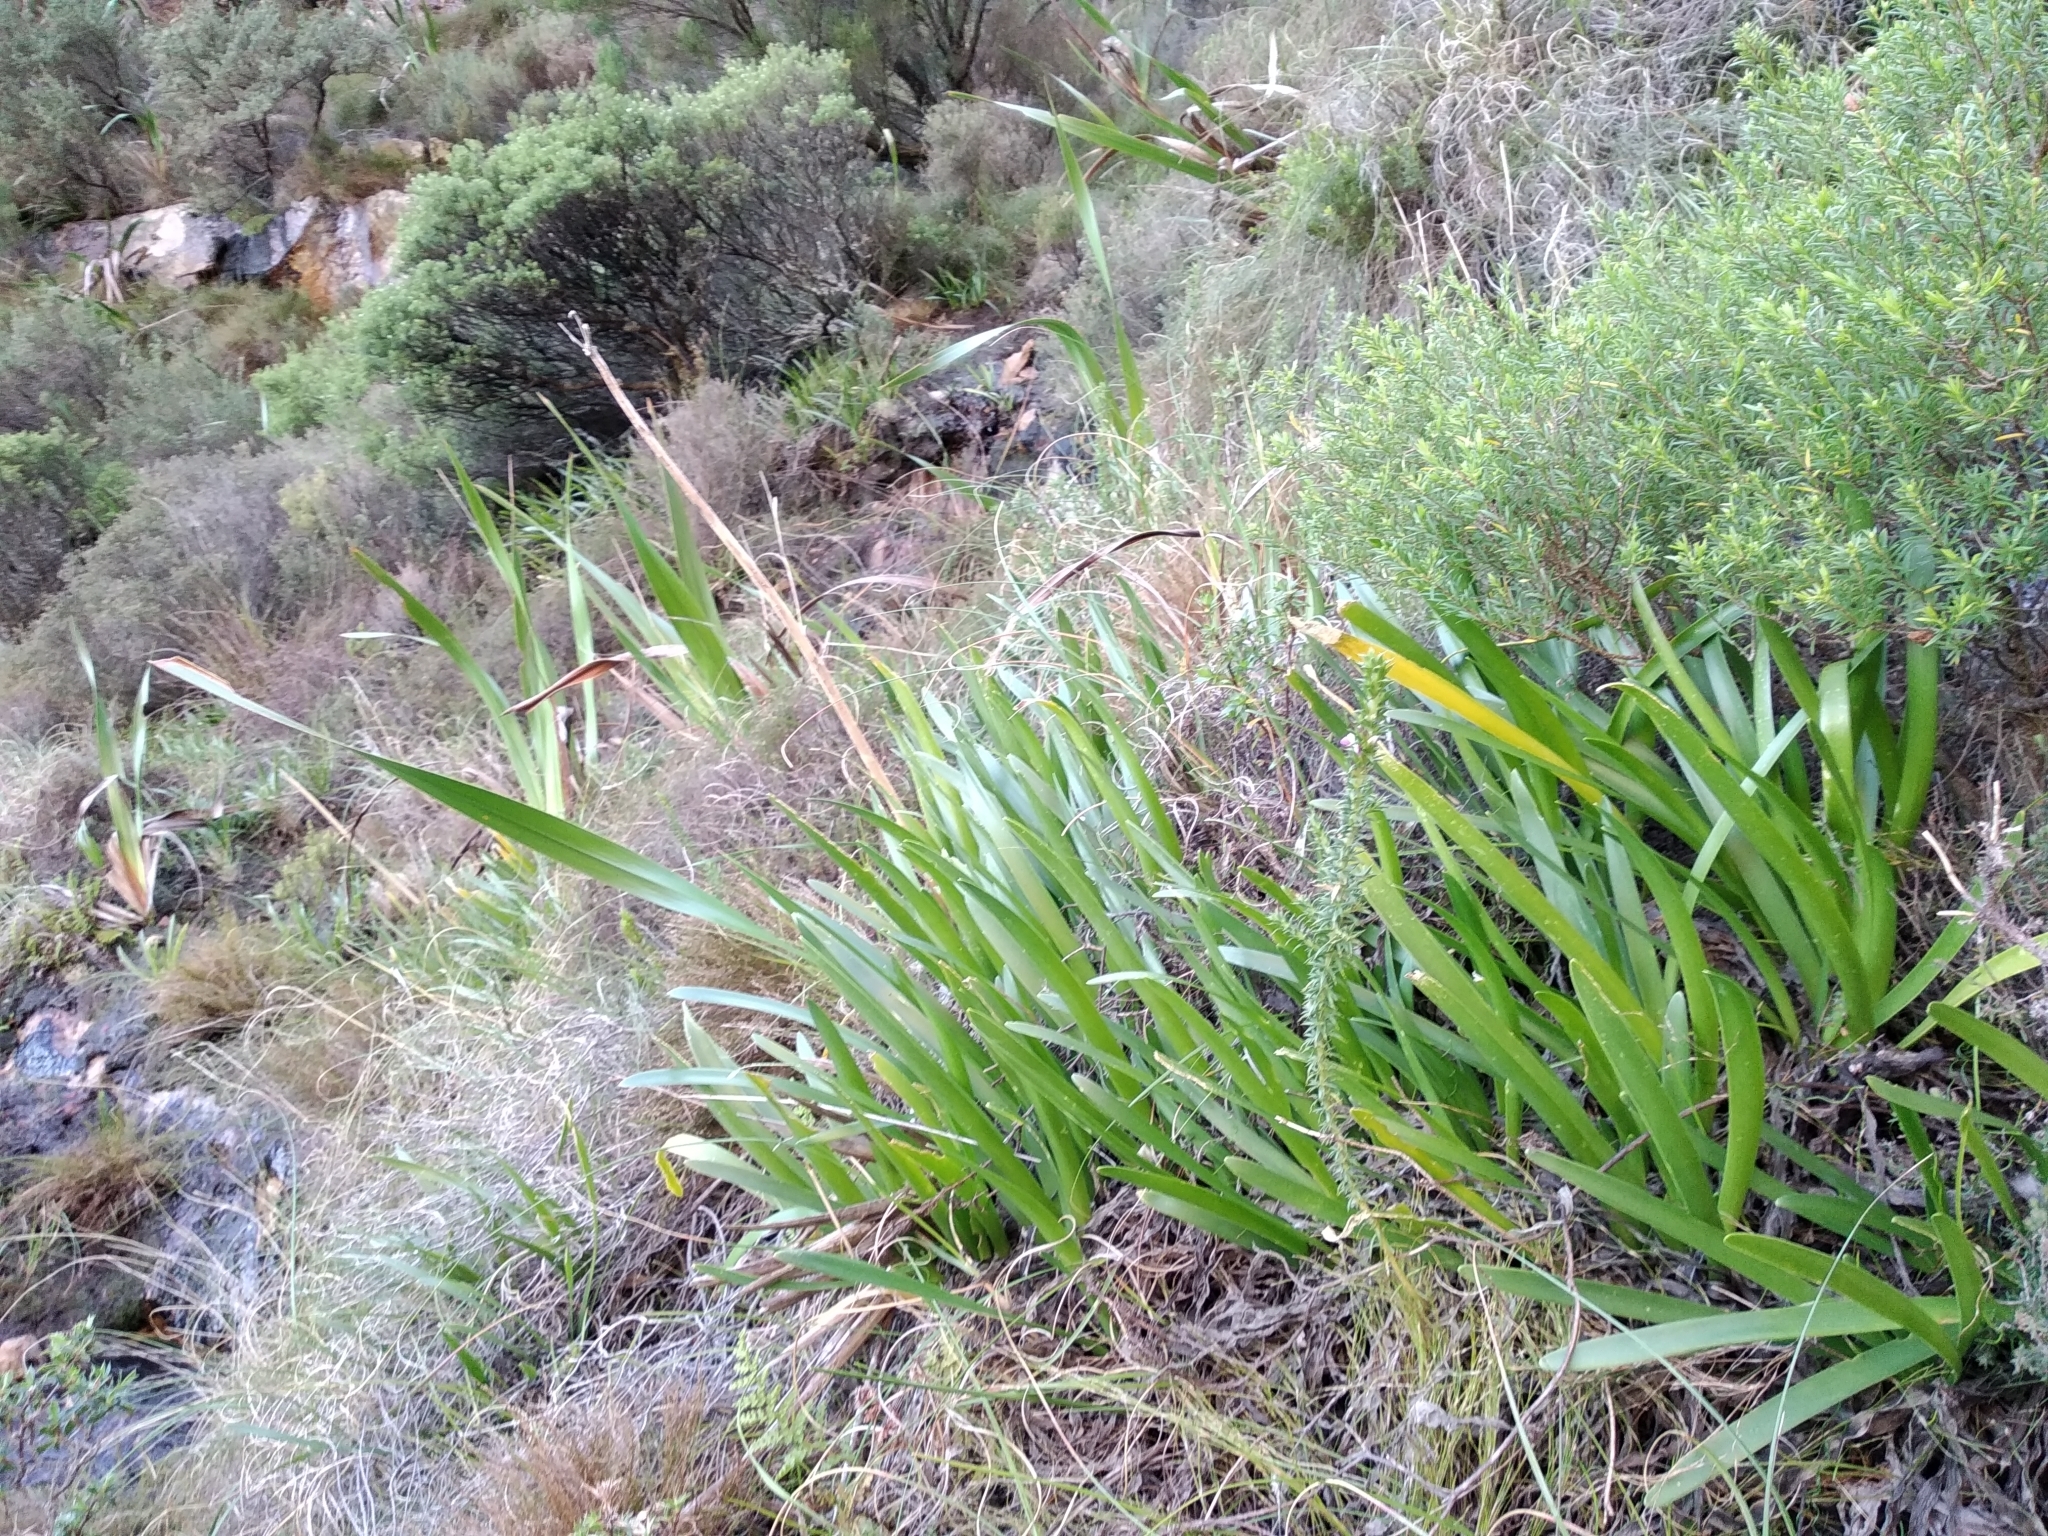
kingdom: Plantae
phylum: Tracheophyta
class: Liliopsida
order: Asparagales
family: Amaryllidaceae
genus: Agapanthus
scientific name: Agapanthus africanus
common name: Lily-of-the-nile
